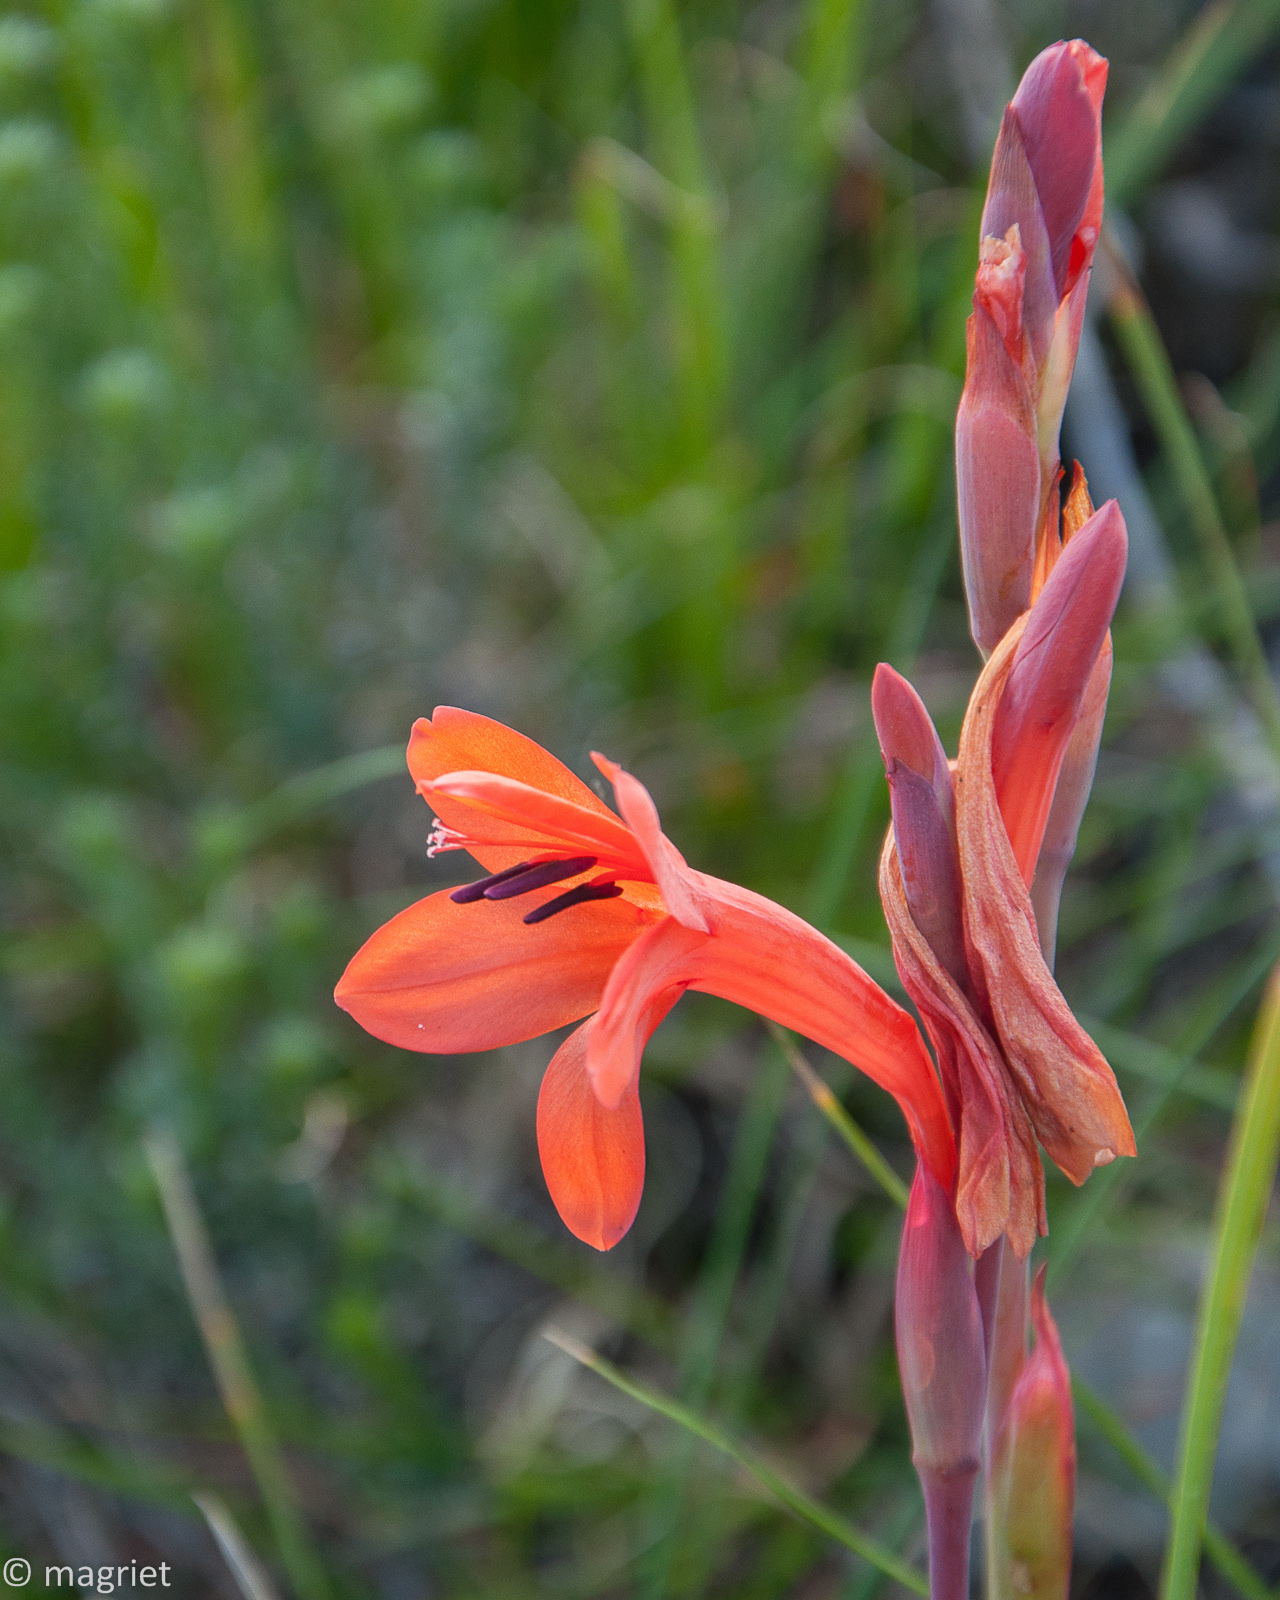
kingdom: Plantae
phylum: Tracheophyta
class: Liliopsida
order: Asparagales
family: Iridaceae
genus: Watsonia
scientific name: Watsonia coccinea
